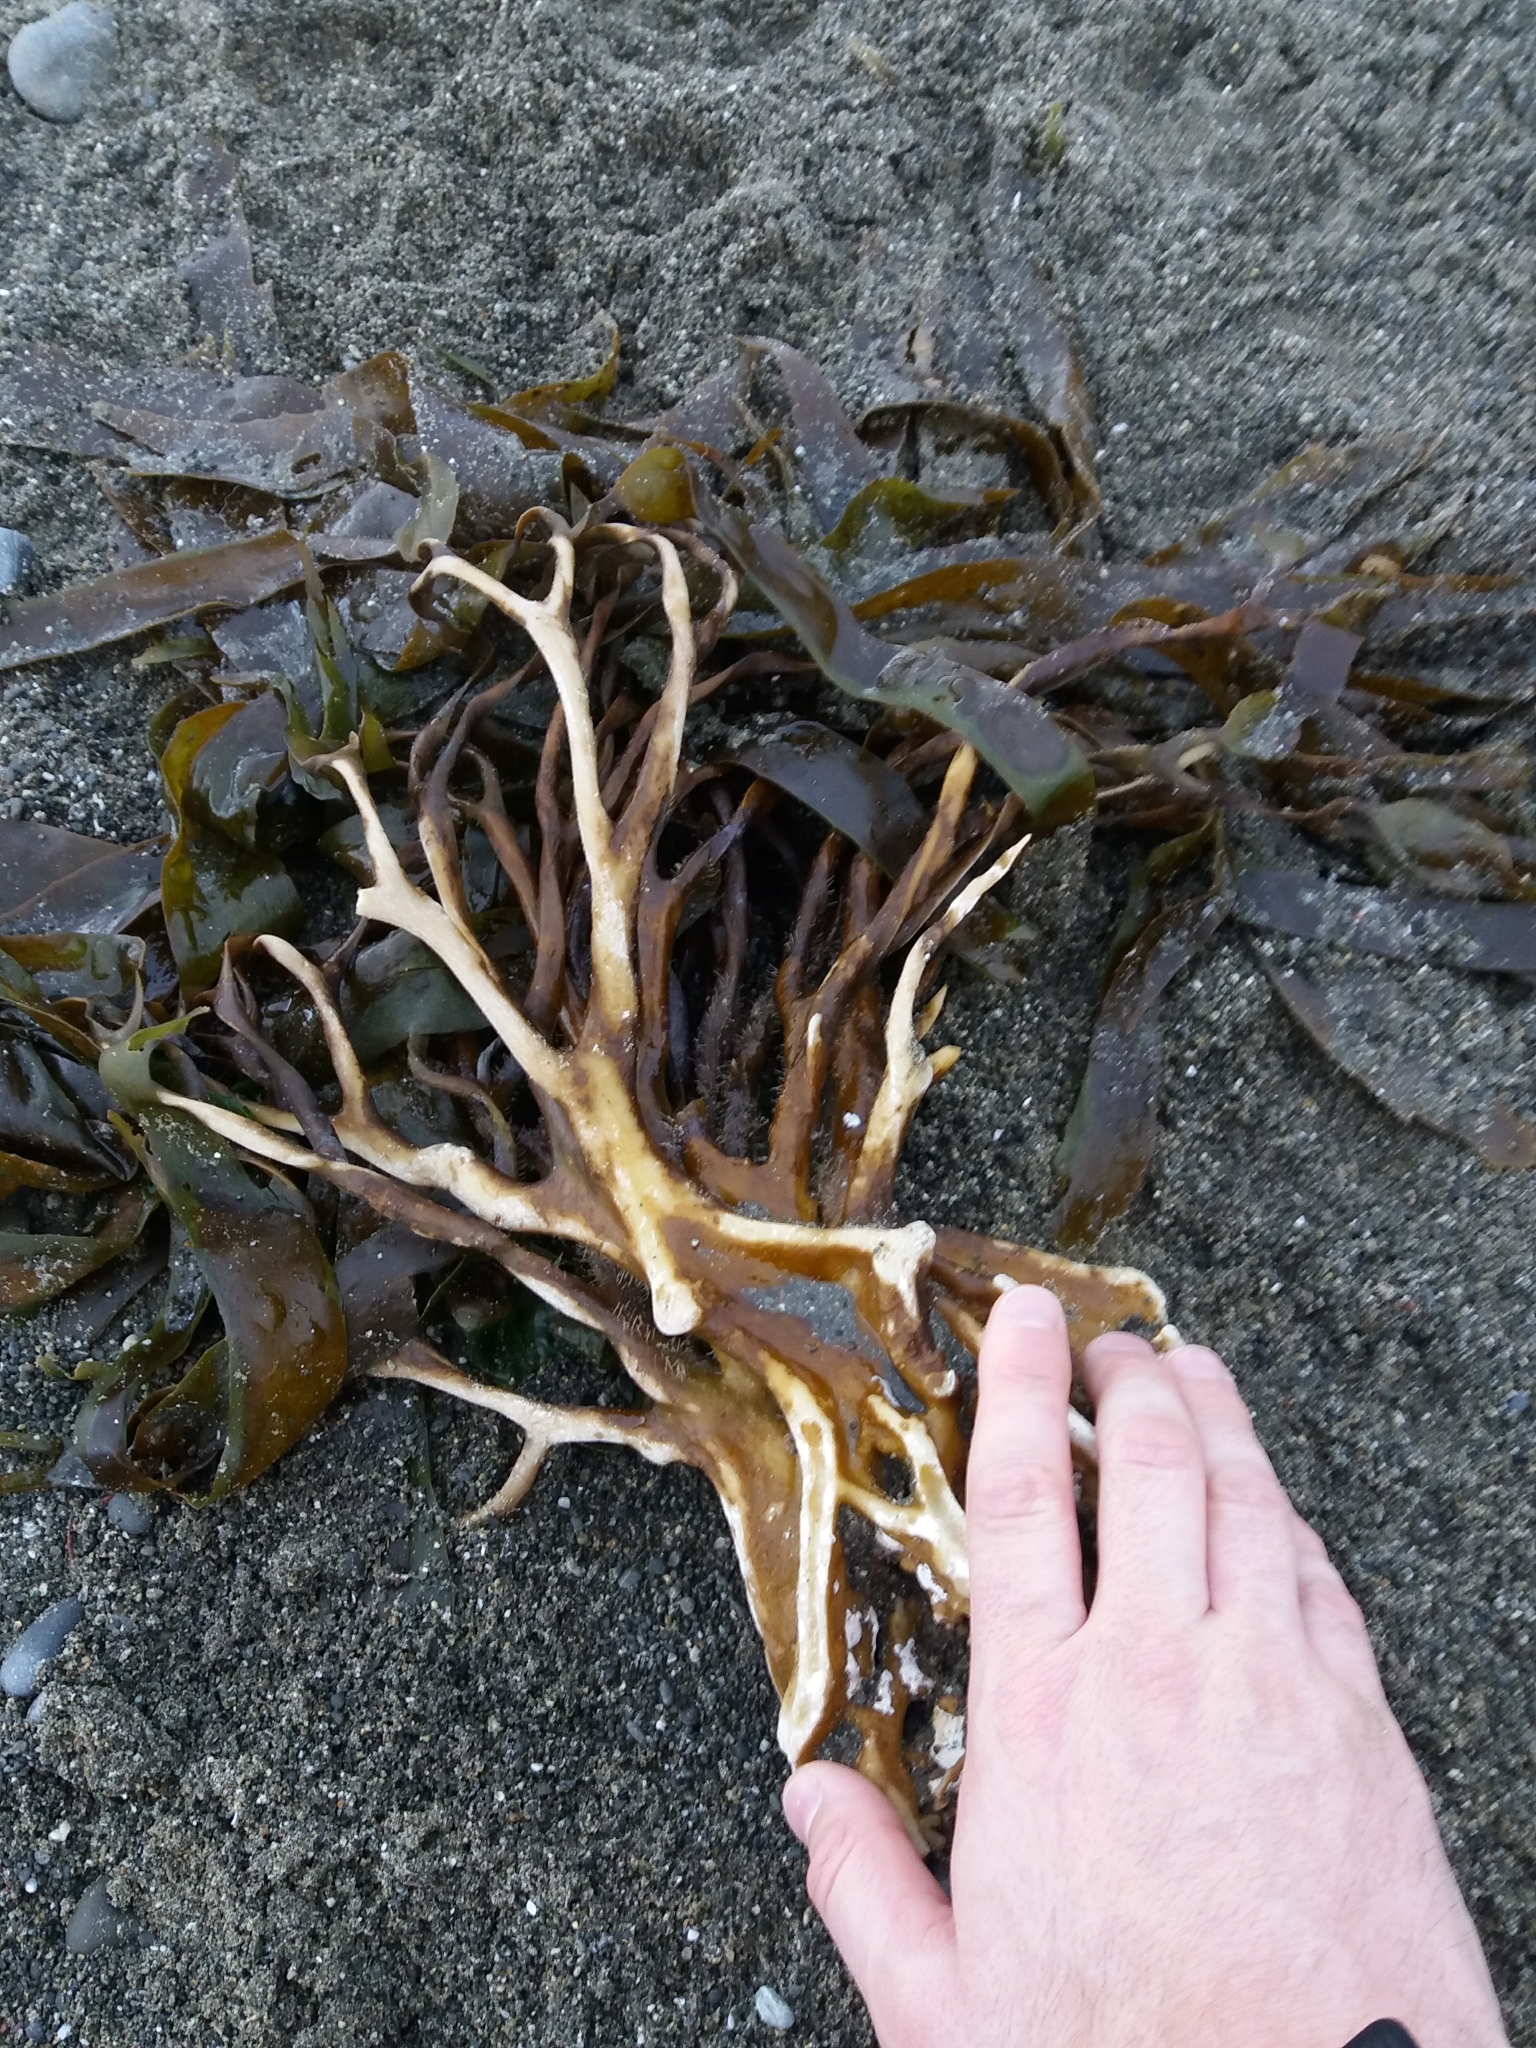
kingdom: Chromista
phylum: Ochrophyta
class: Phaeophyceae
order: Laminariales
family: Lessoniaceae
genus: Lessonia
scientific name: Lessonia variegata
